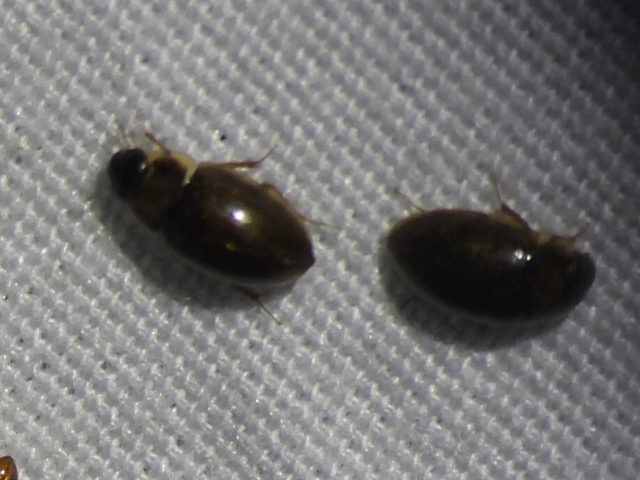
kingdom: Animalia
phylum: Arthropoda
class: Insecta
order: Coleoptera
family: Hydrophilidae
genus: Enochrus
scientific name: Enochrus
